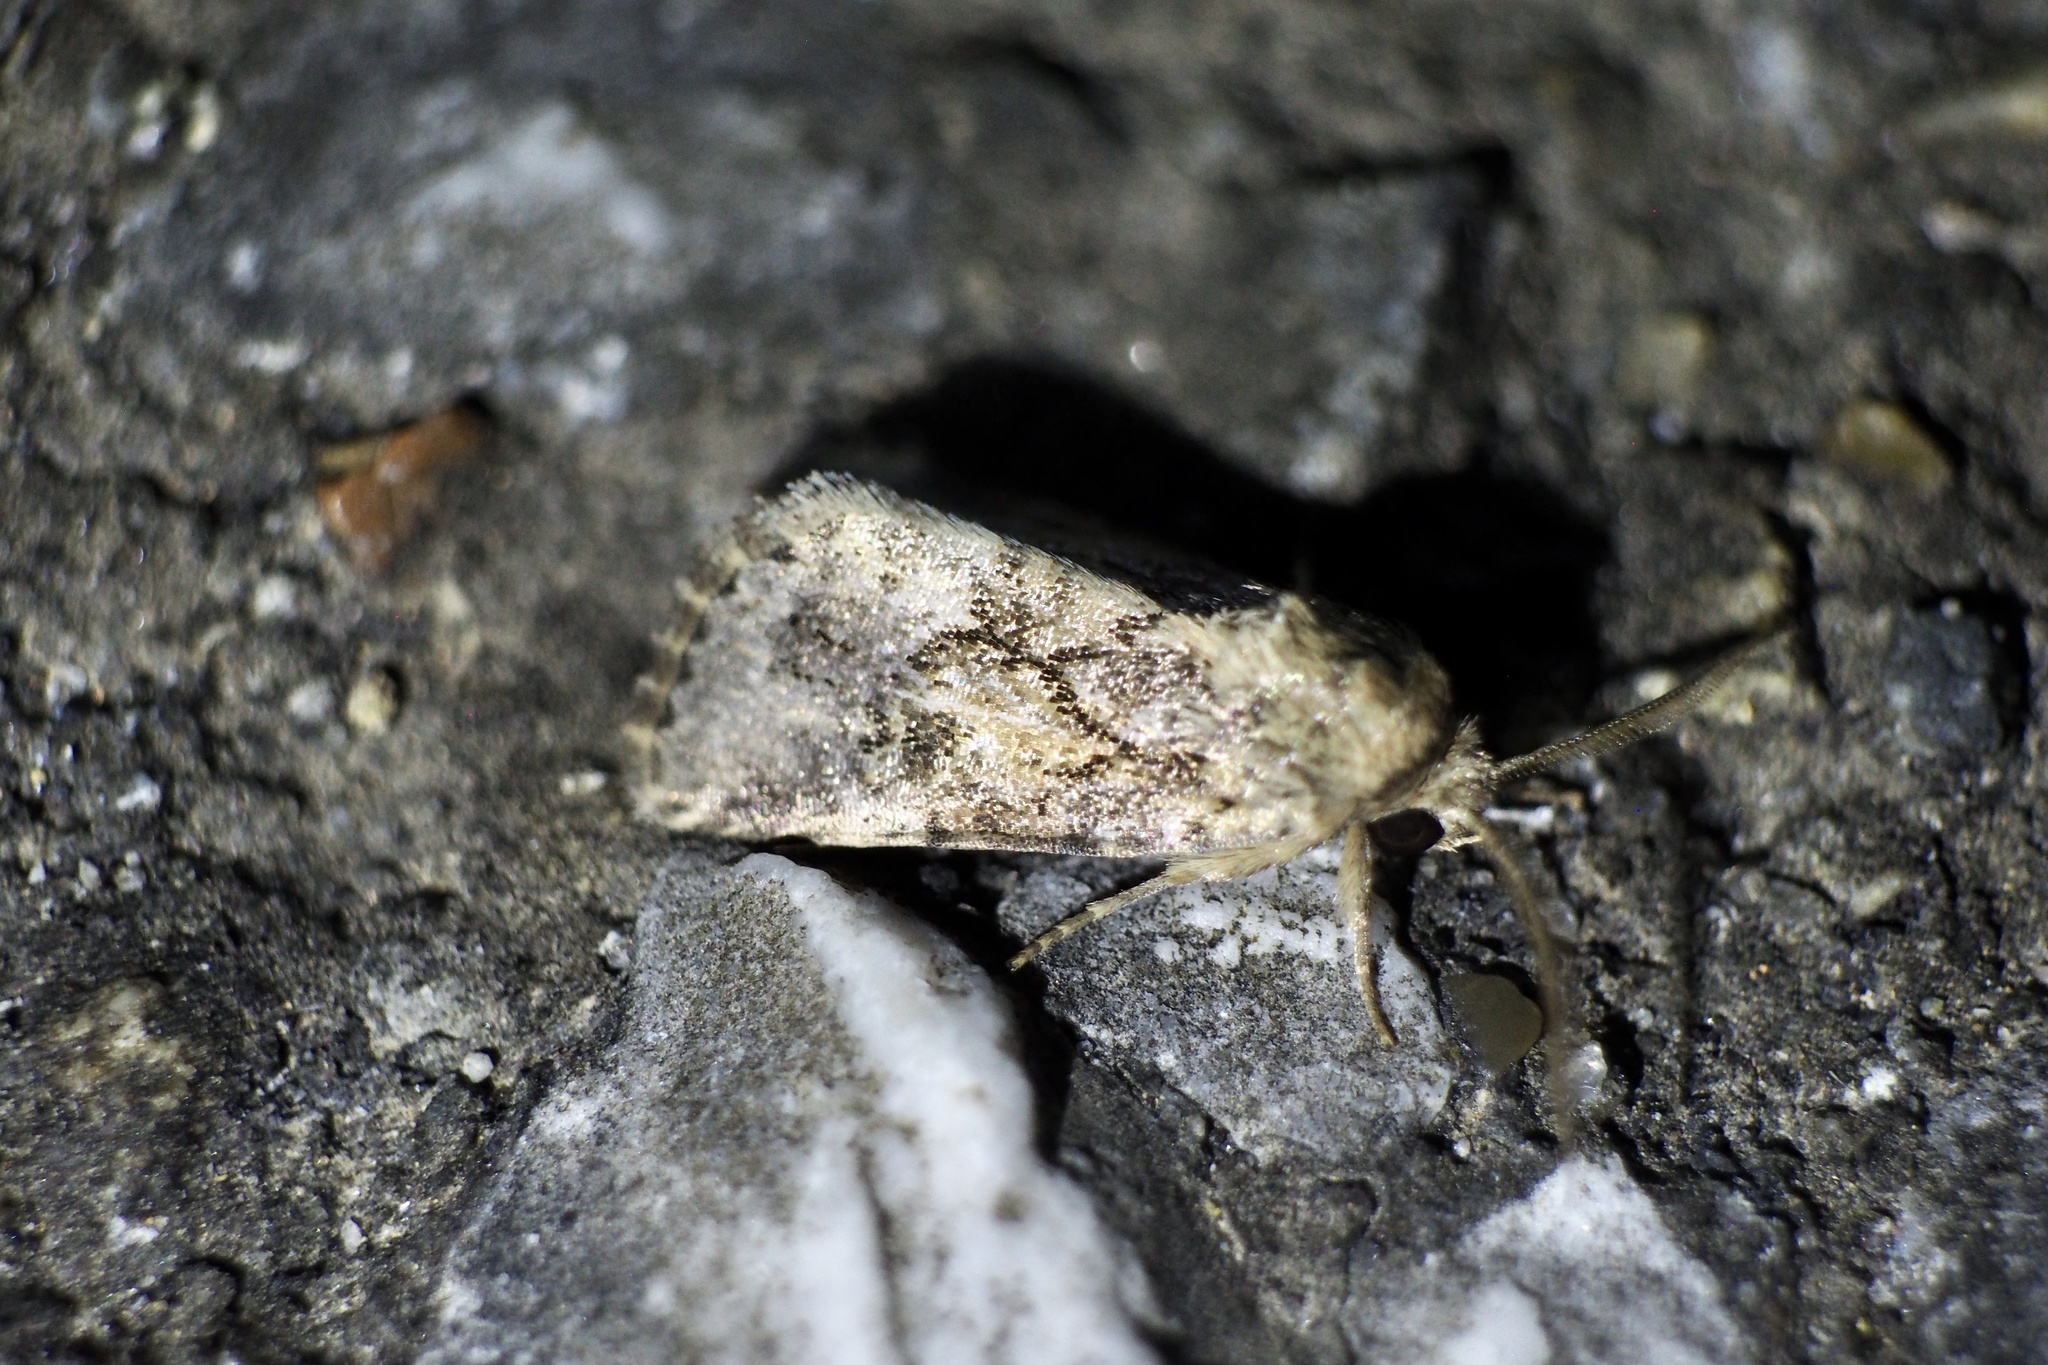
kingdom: Animalia
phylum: Arthropoda
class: Insecta
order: Lepidoptera
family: Noctuidae
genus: Spodoptera
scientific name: Spodoptera depravata
